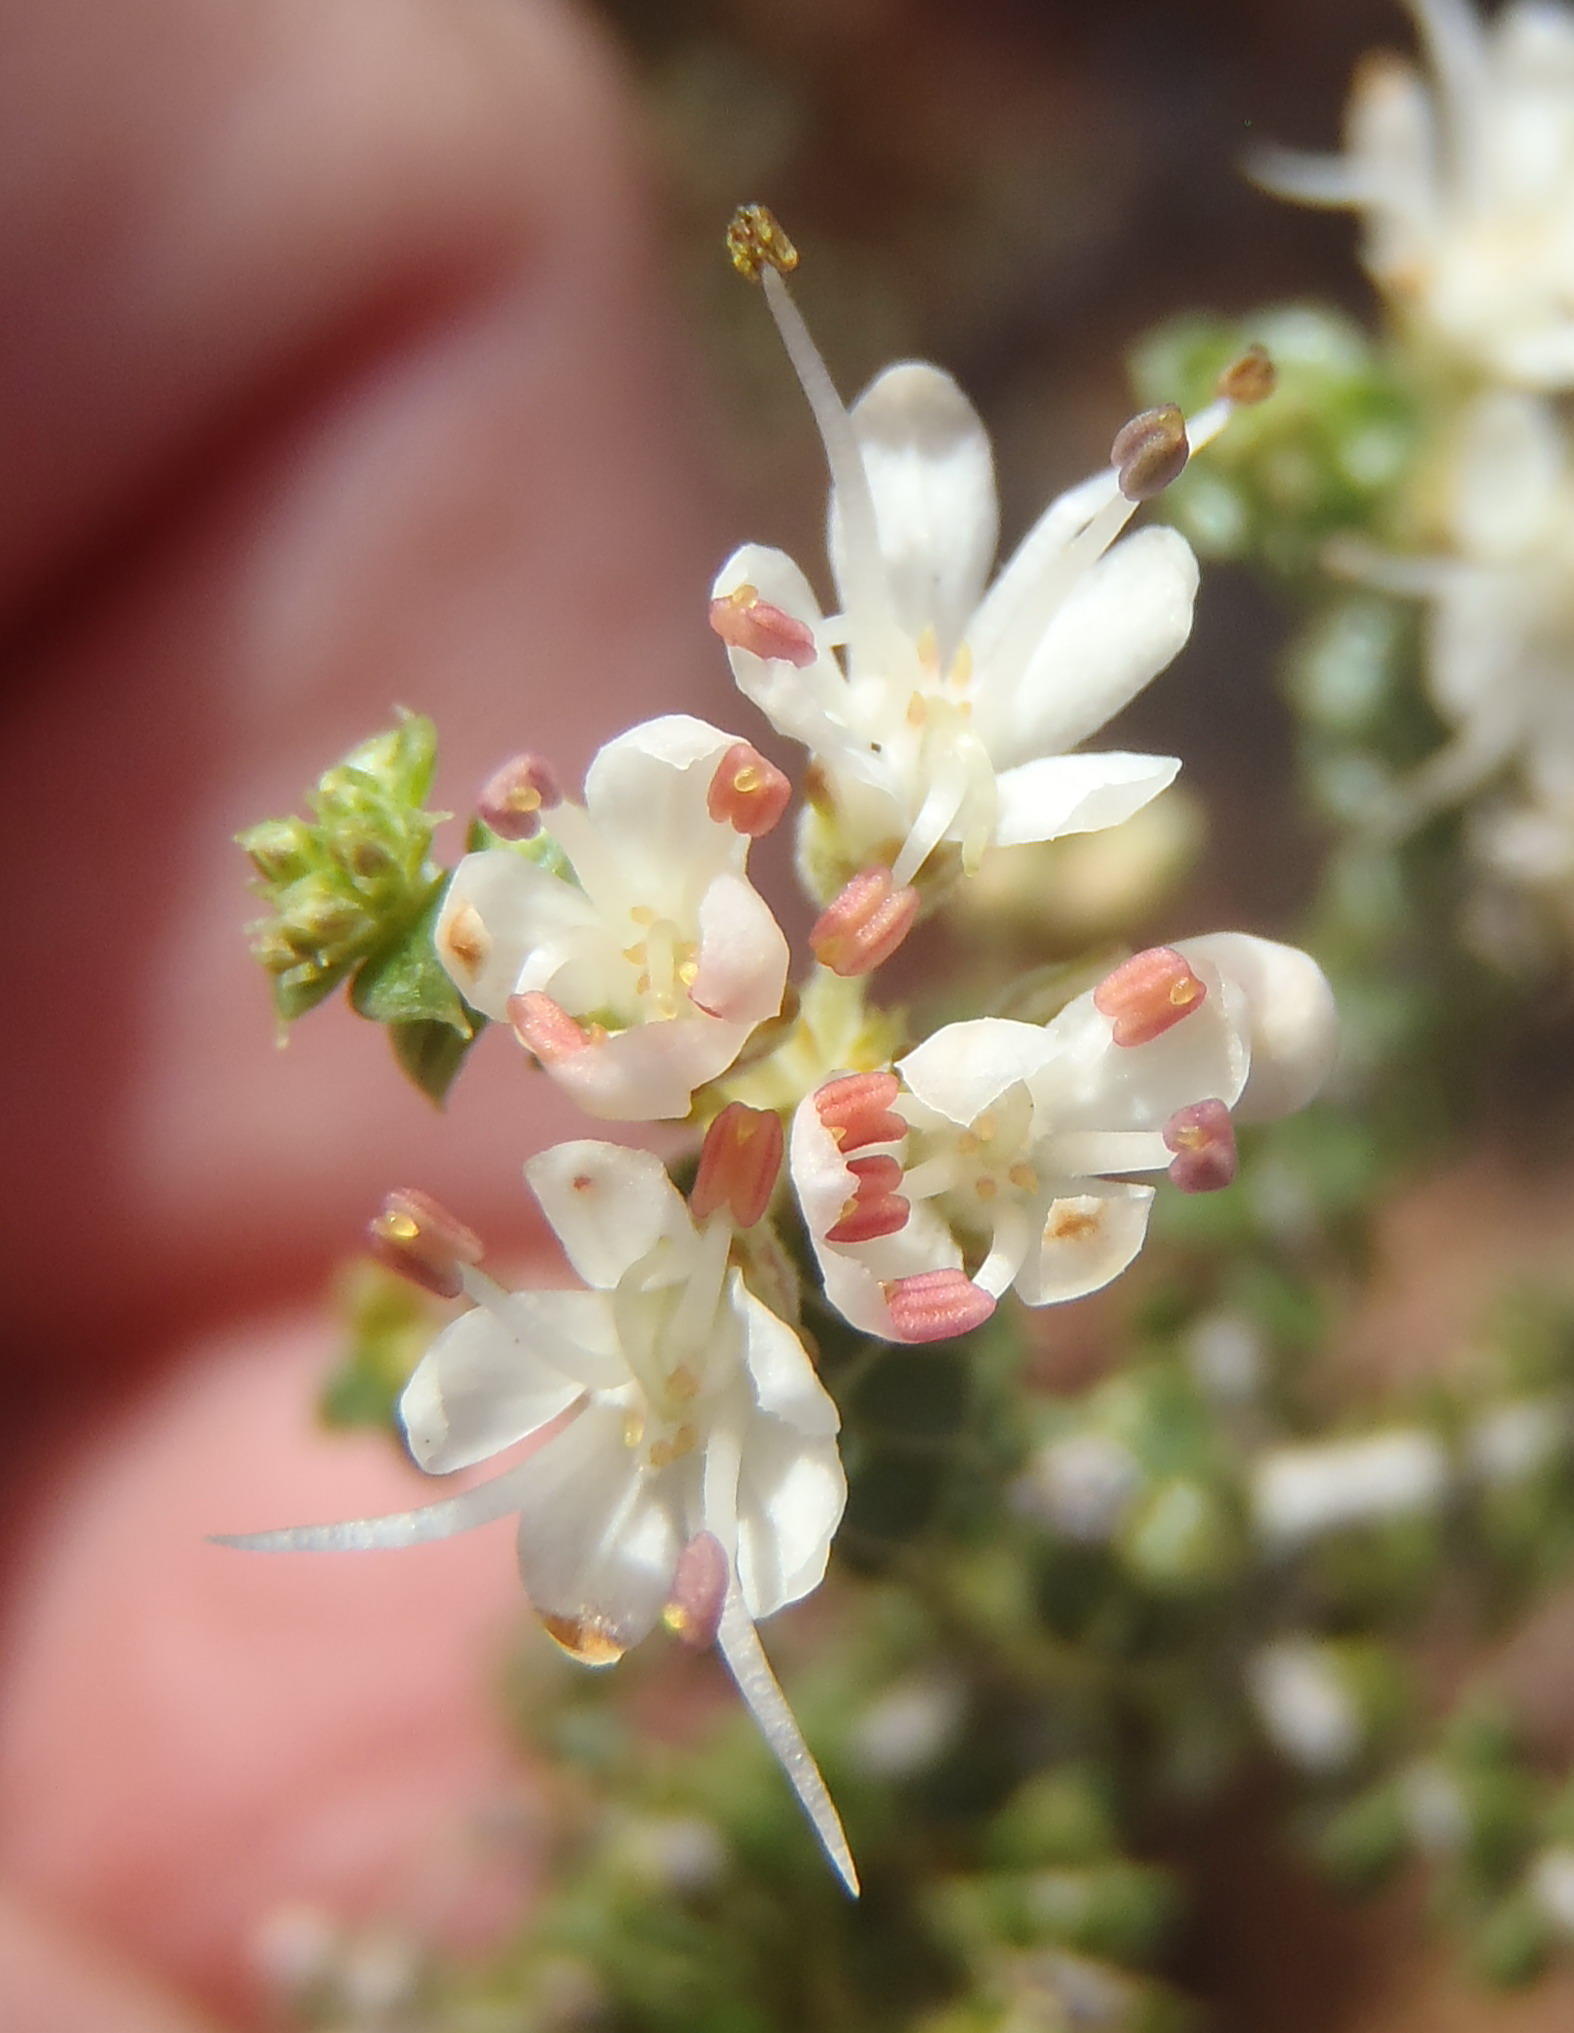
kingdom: Plantae
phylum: Tracheophyta
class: Magnoliopsida
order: Sapindales
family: Rutaceae
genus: Agathosma
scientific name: Agathosma recurvifolia
